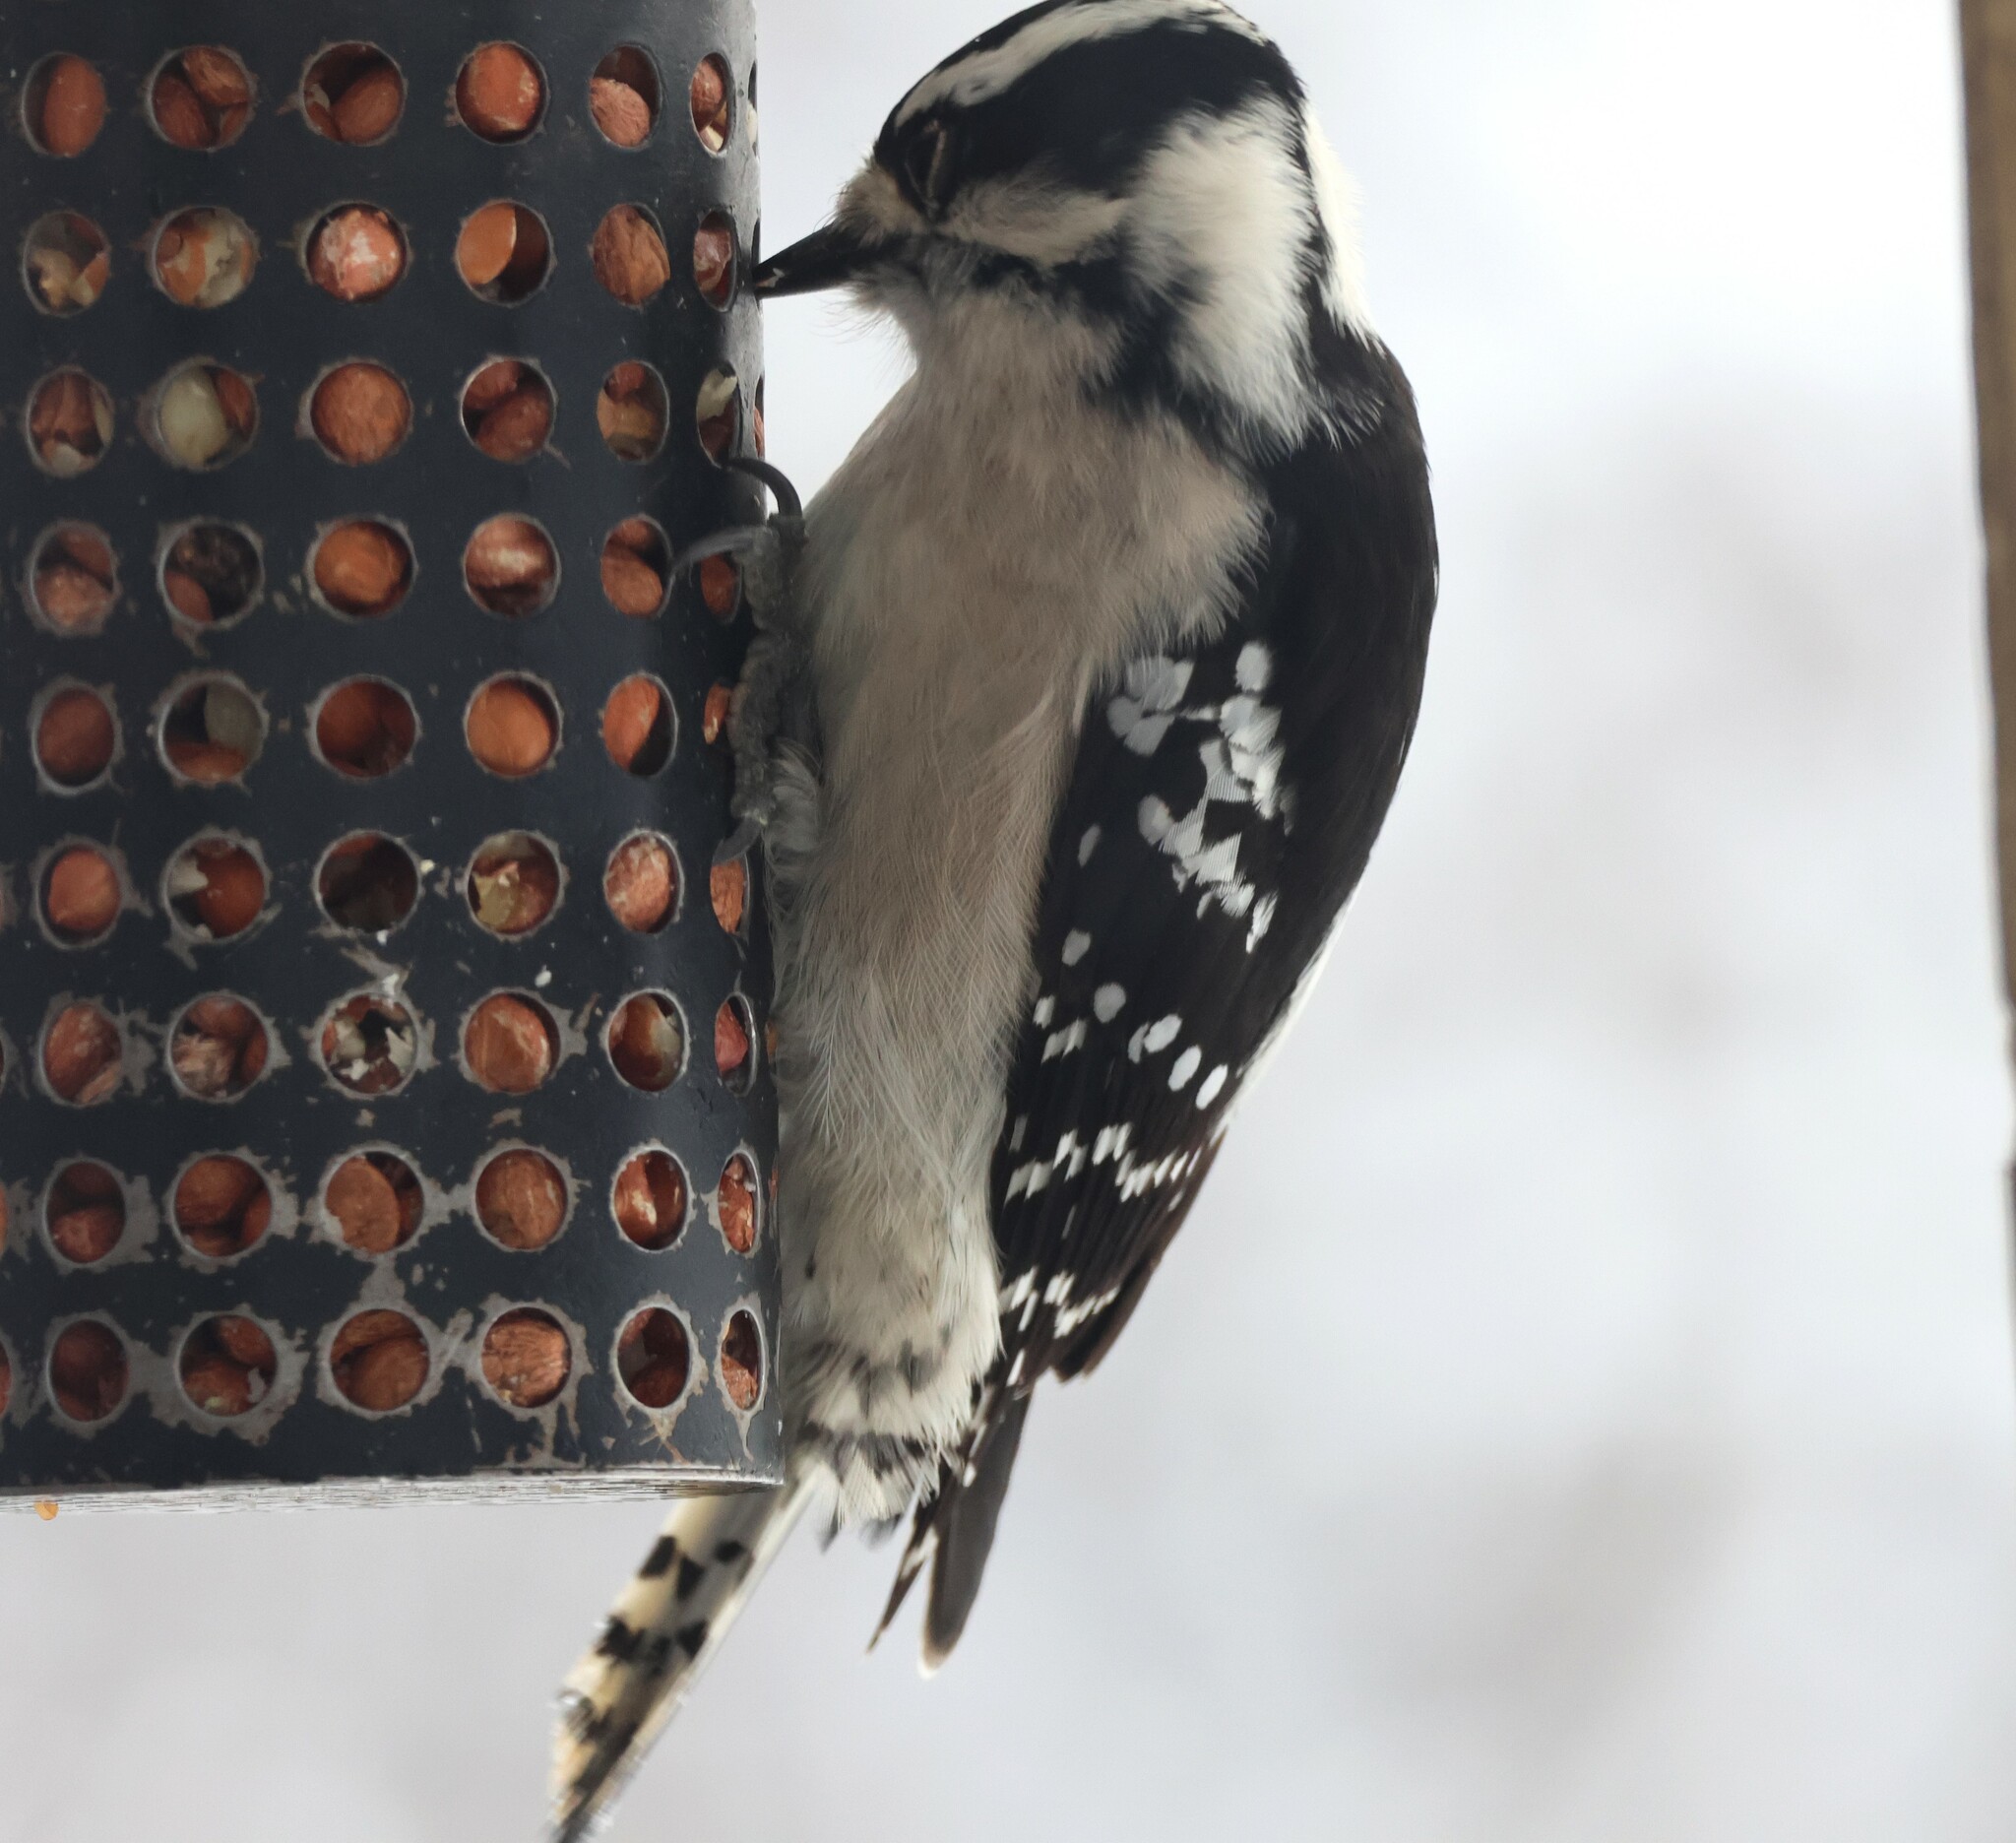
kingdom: Animalia
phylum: Chordata
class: Aves
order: Piciformes
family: Picidae
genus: Dryobates
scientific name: Dryobates pubescens
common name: Downy woodpecker
